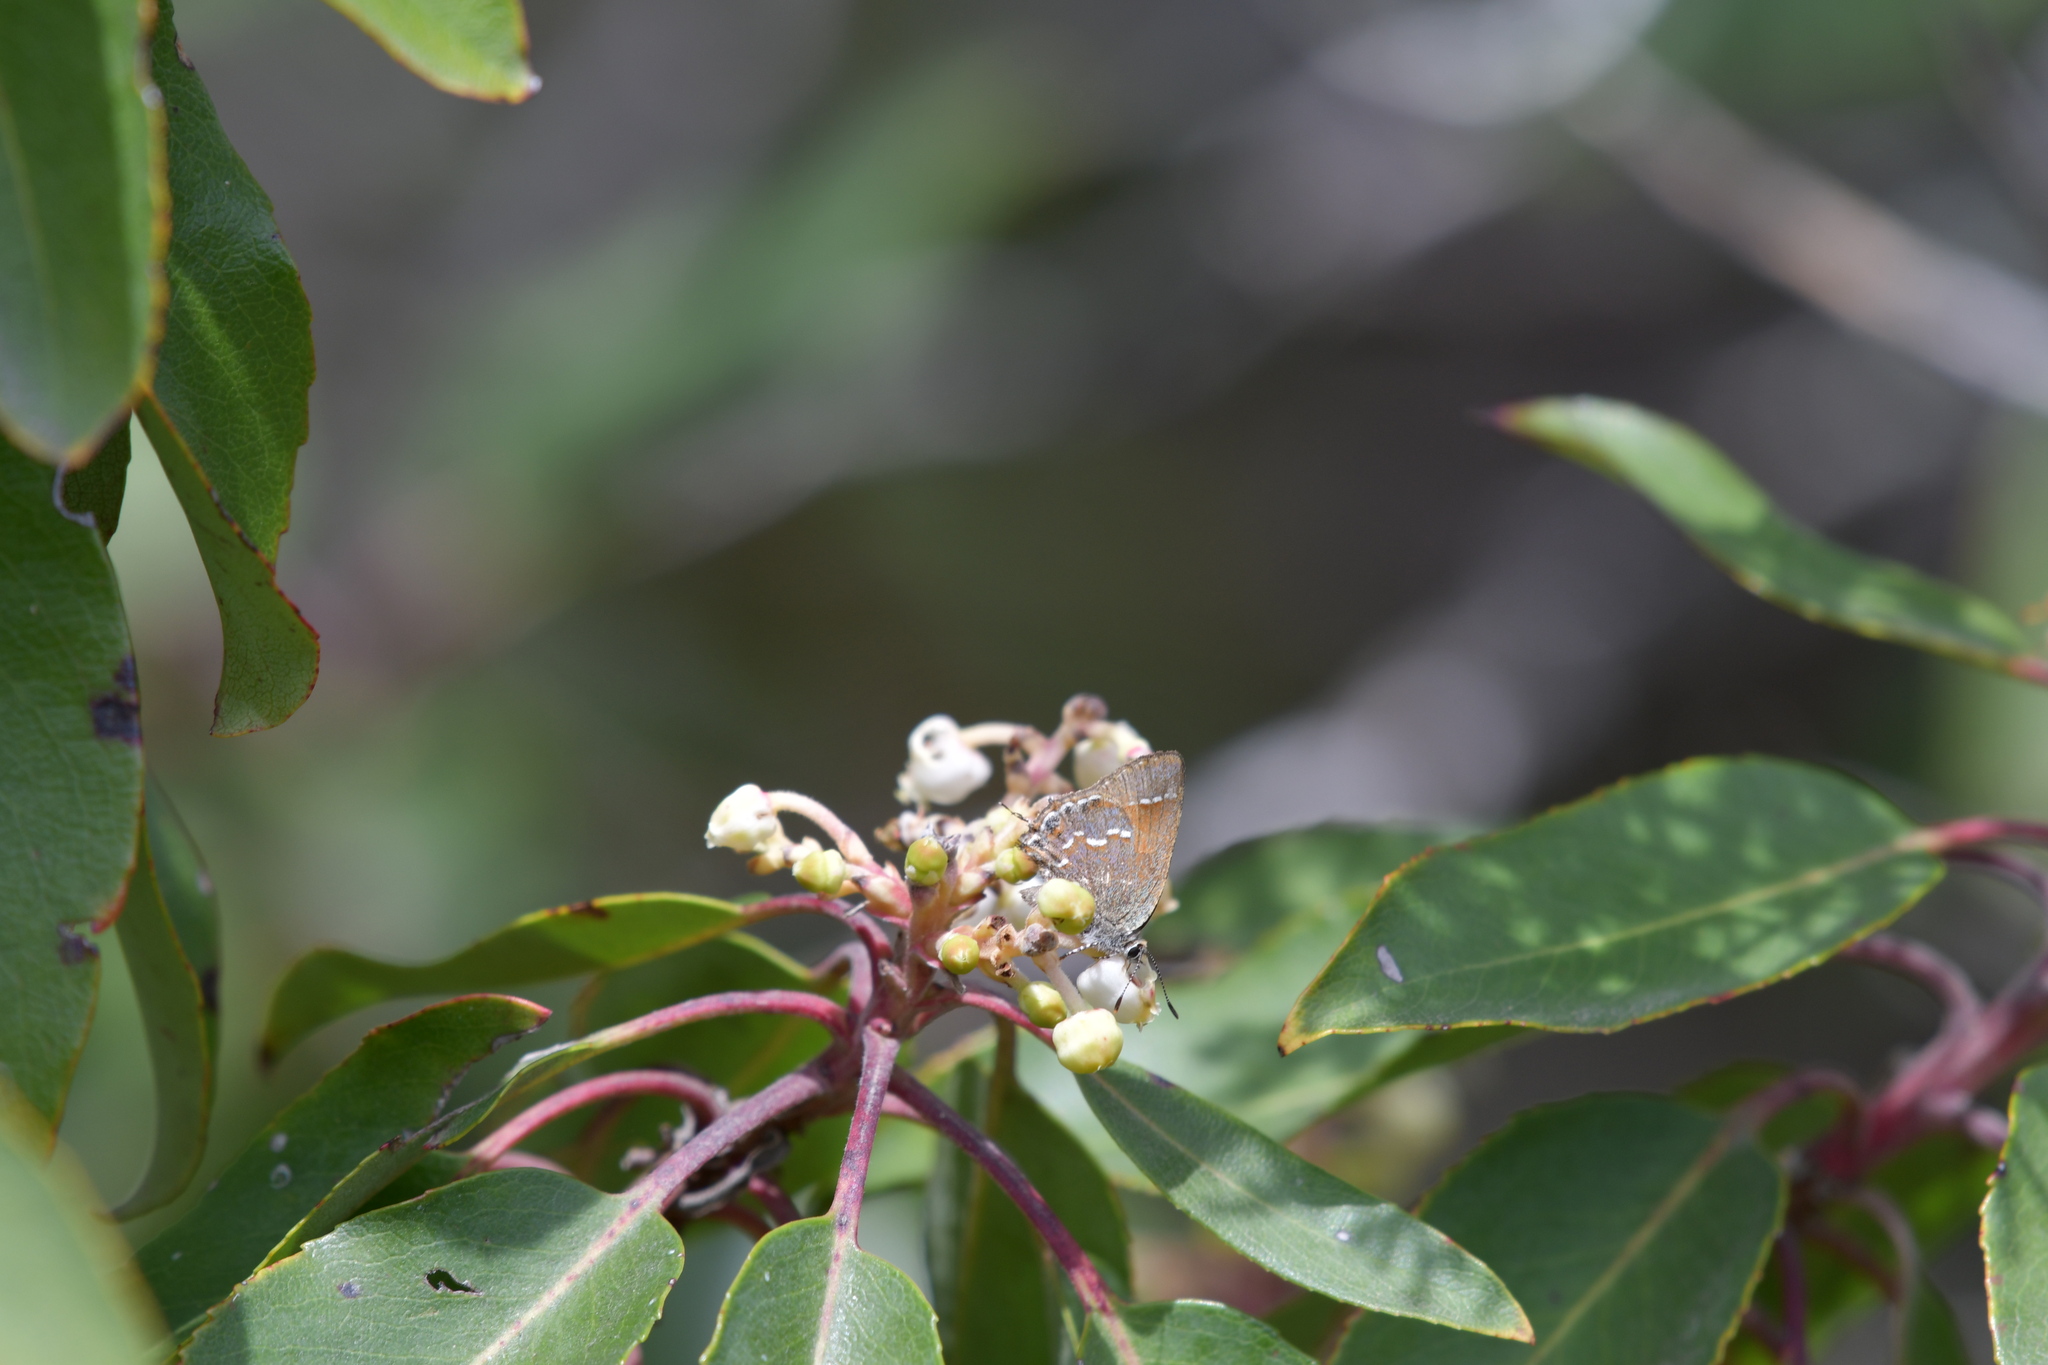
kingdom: Animalia
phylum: Arthropoda
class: Insecta
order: Lepidoptera
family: Lycaenidae
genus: Mitoura
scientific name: Mitoura gryneus
